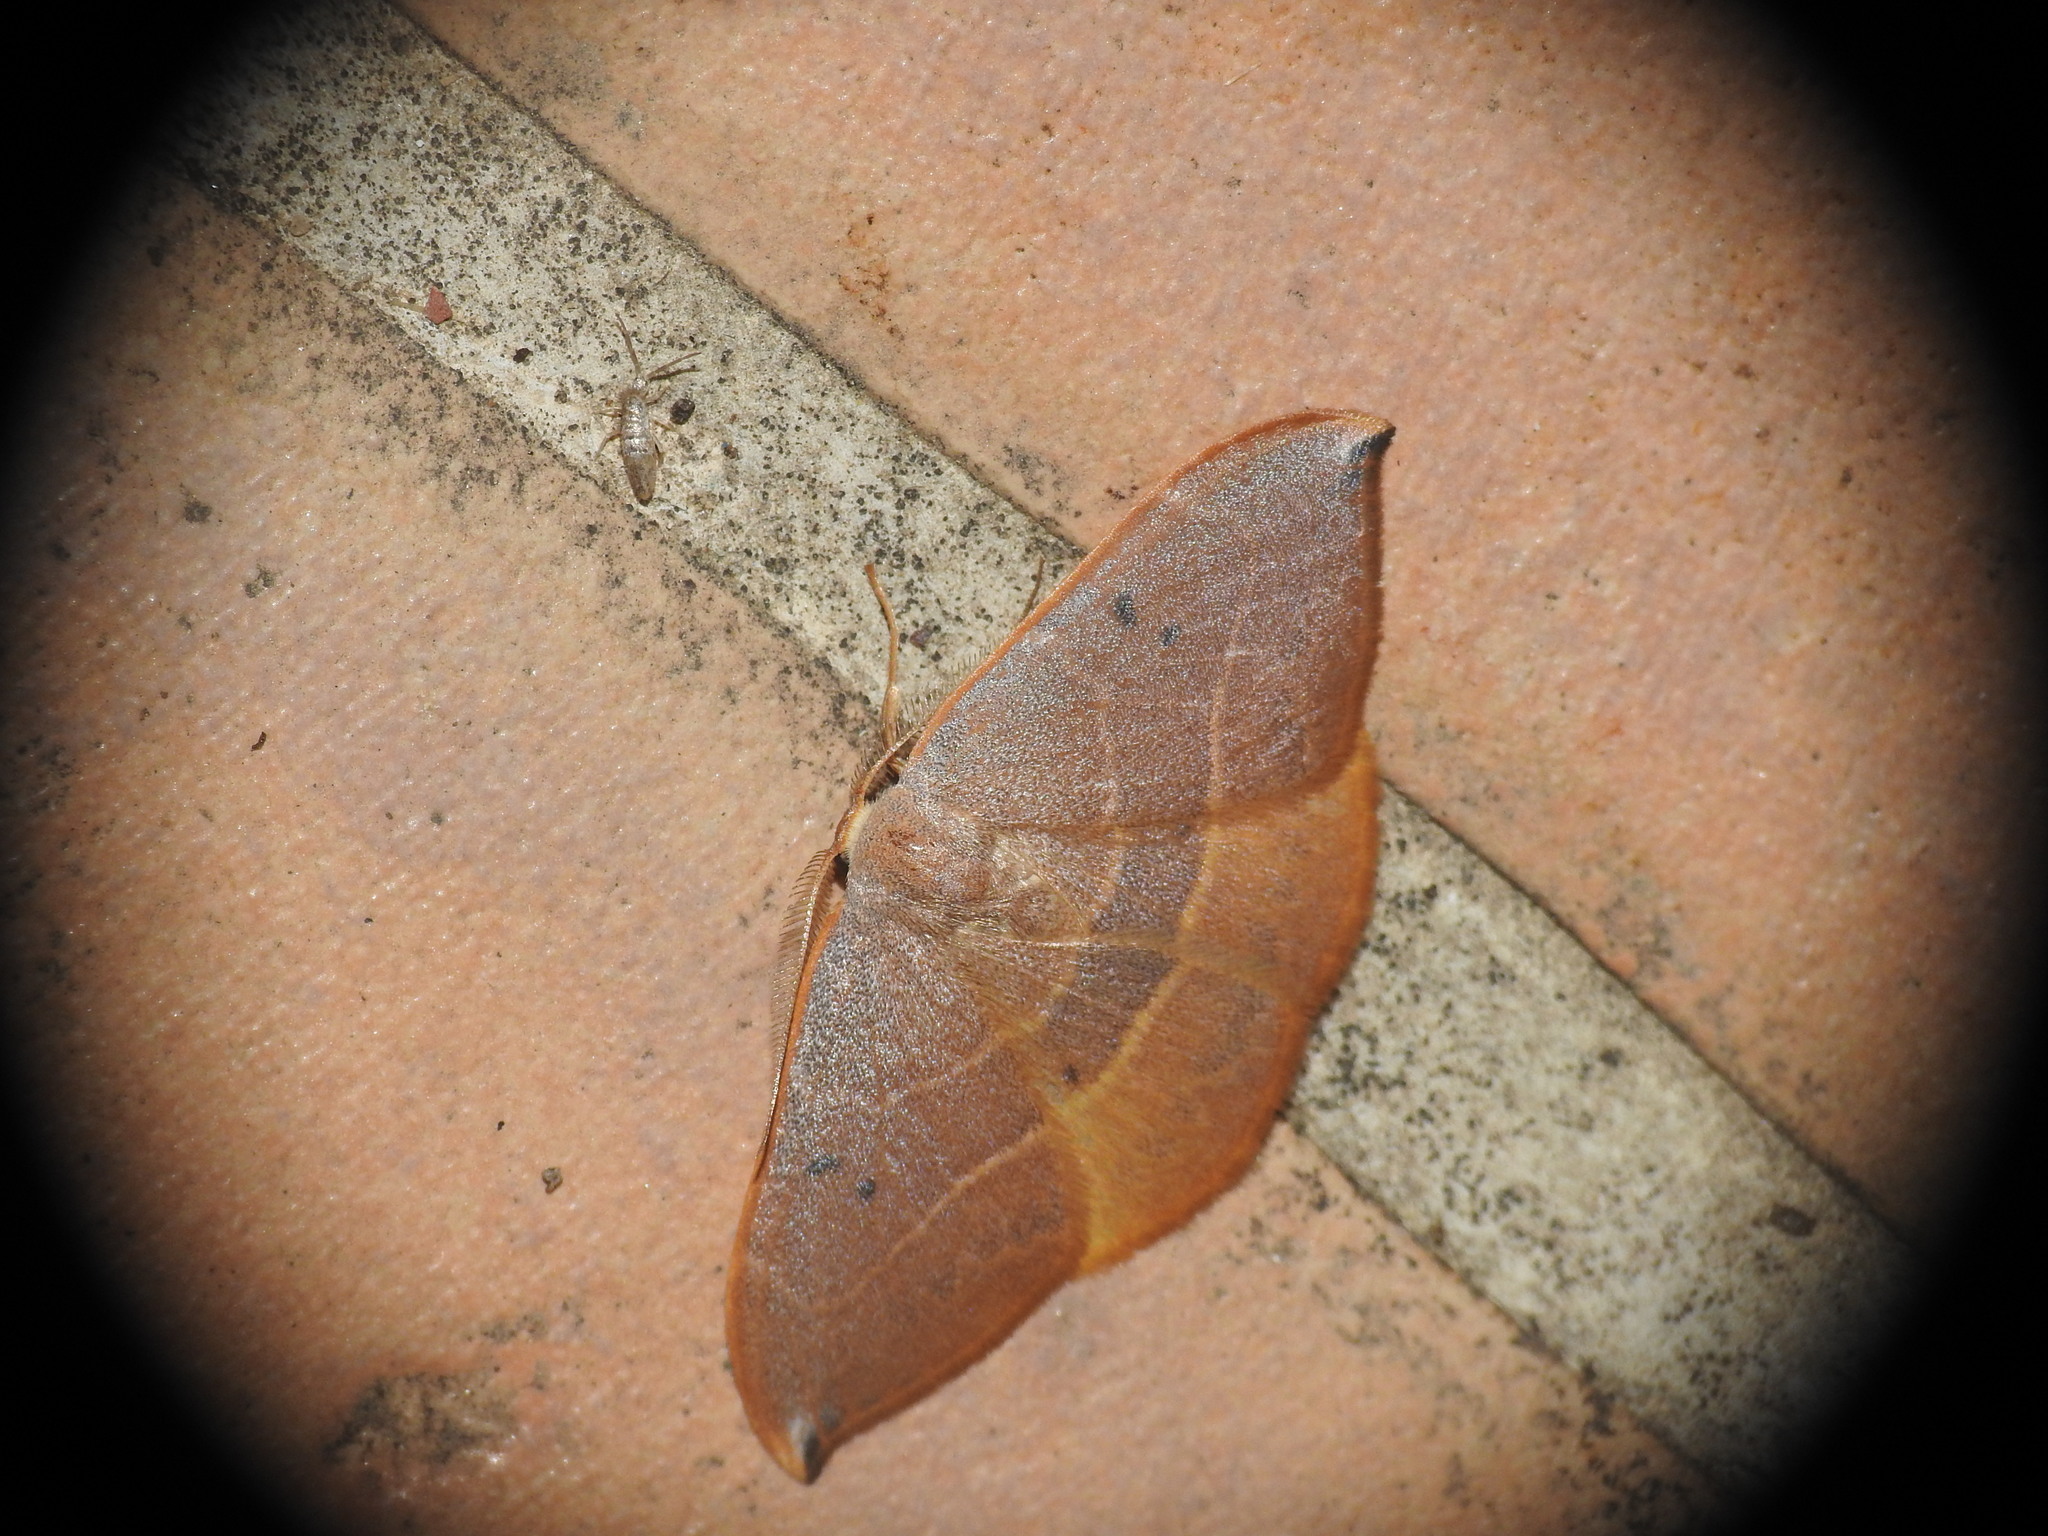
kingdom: Animalia
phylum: Arthropoda
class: Insecta
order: Lepidoptera
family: Drepanidae
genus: Watsonalla
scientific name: Watsonalla uncinula
